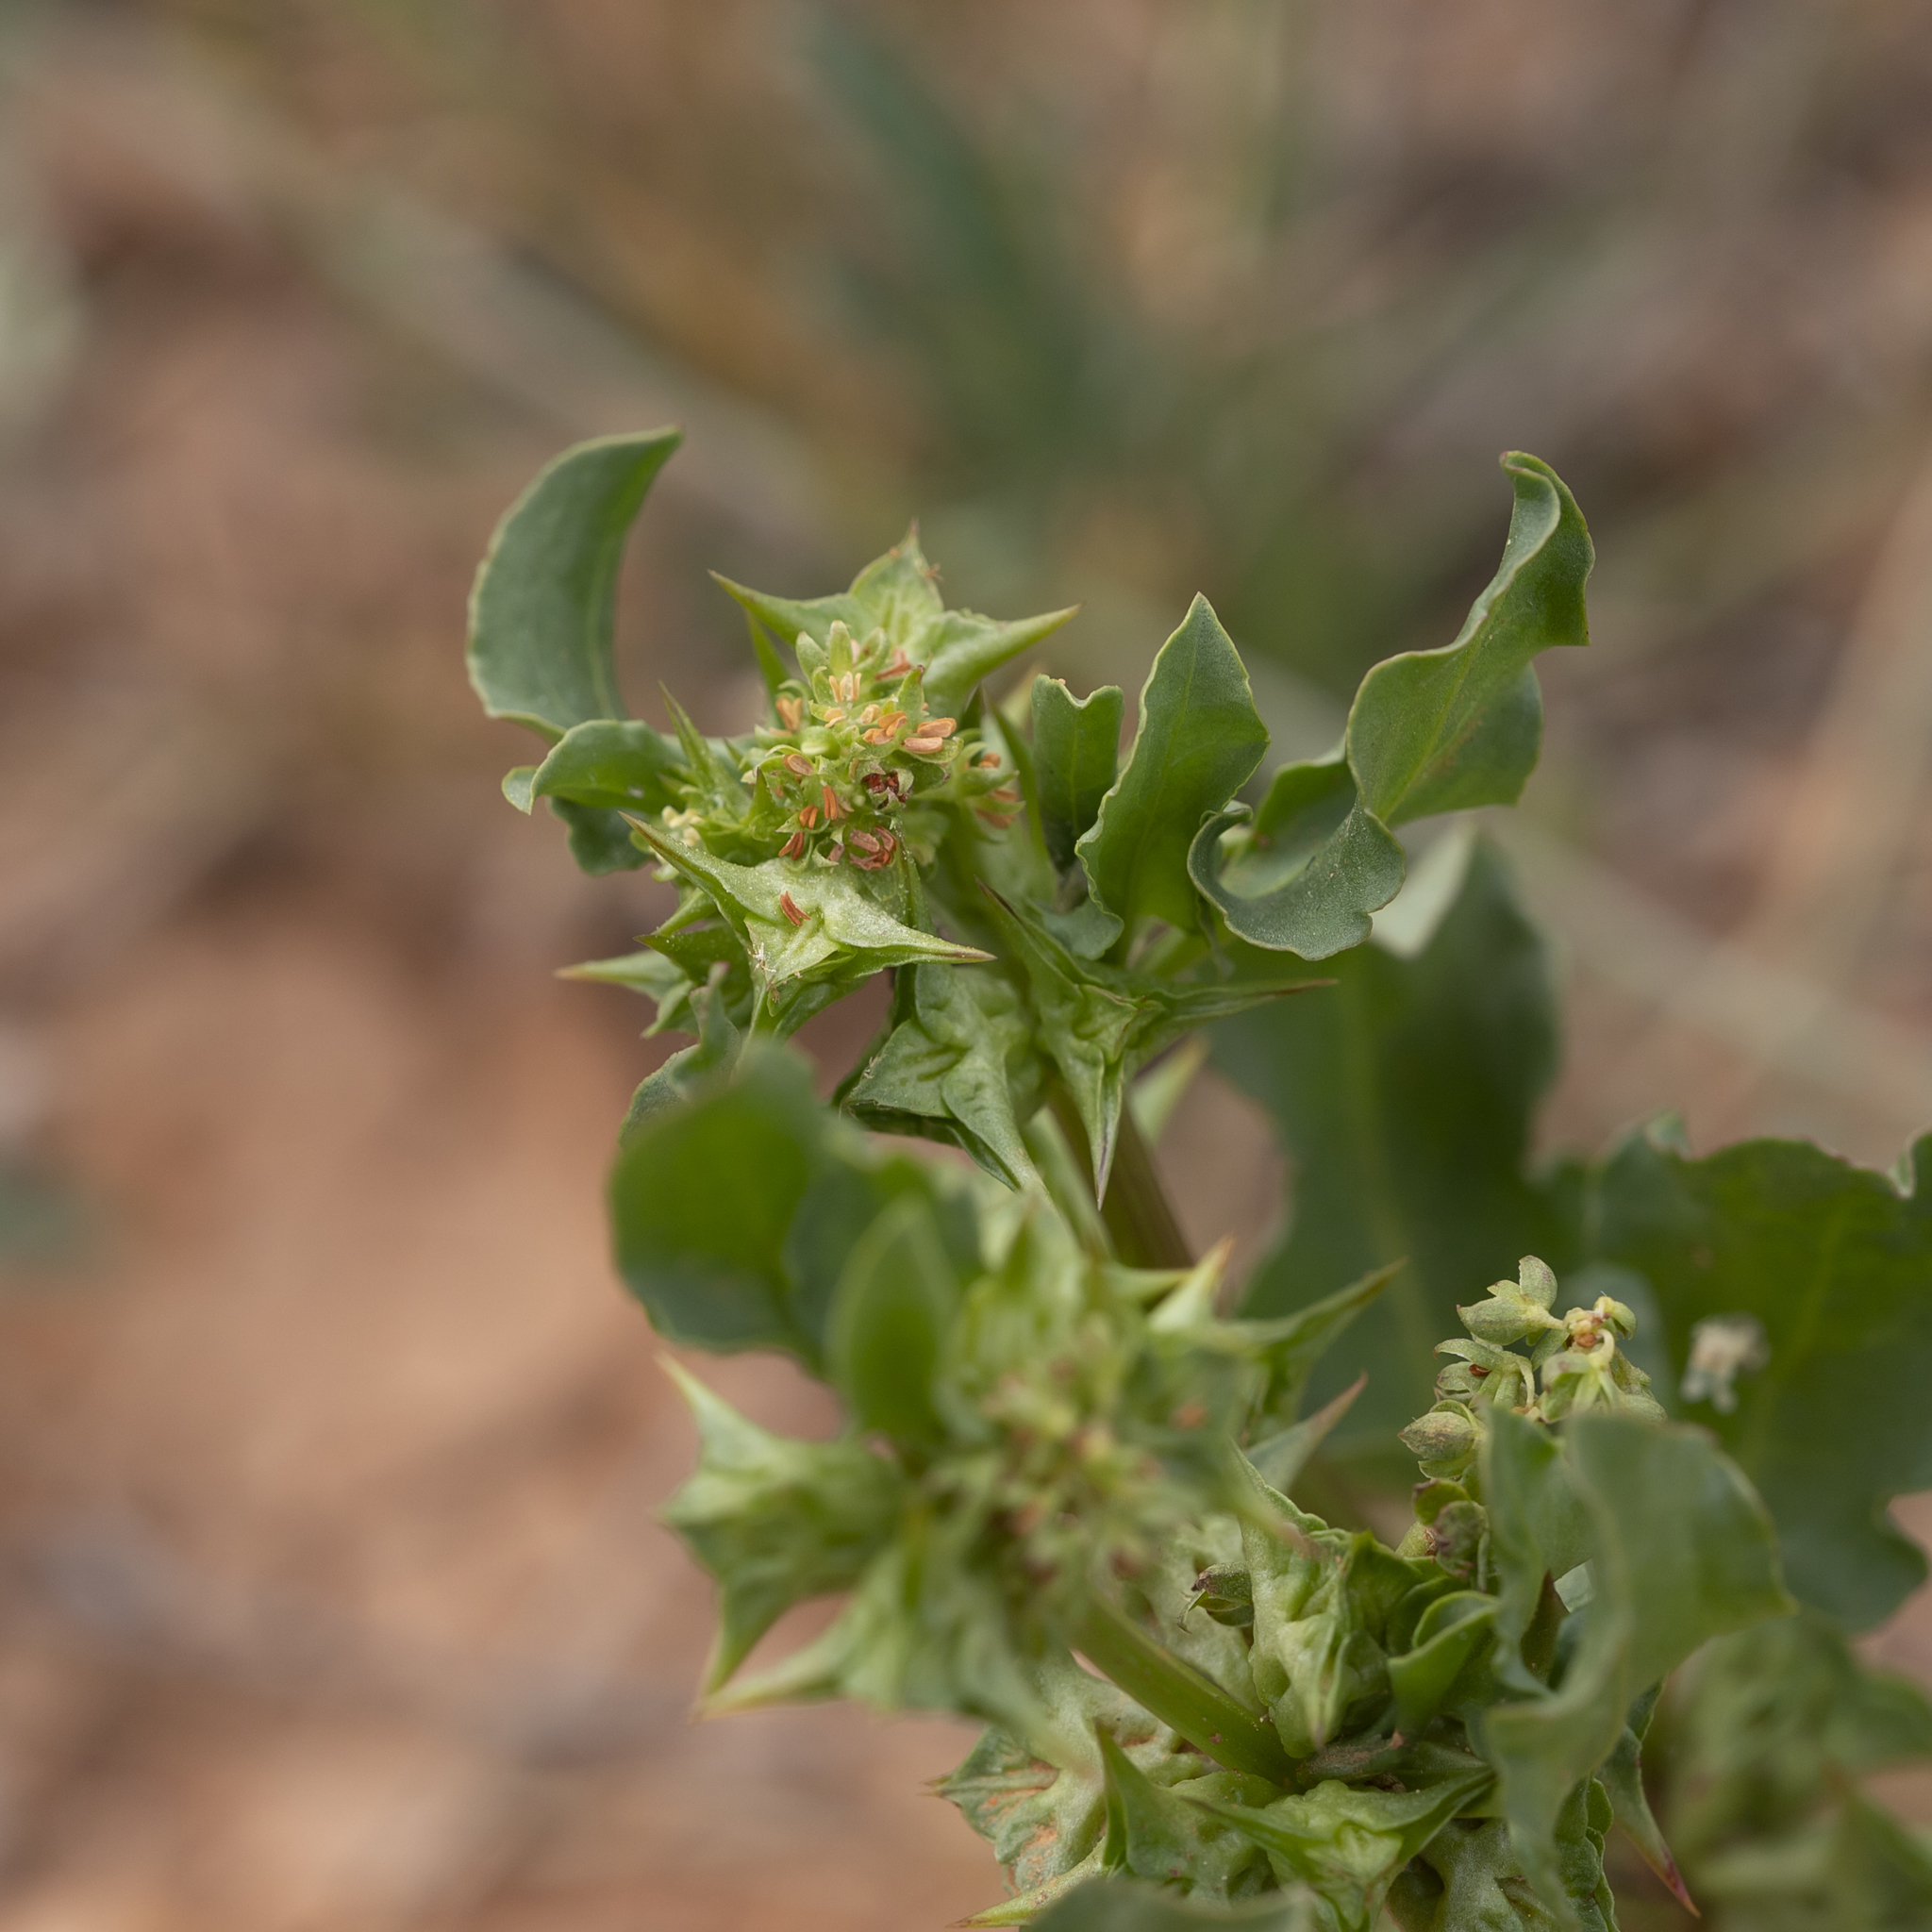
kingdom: Plantae
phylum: Tracheophyta
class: Magnoliopsida
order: Caryophyllales
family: Polygonaceae
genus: Rumex
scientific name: Rumex hypogaeus
